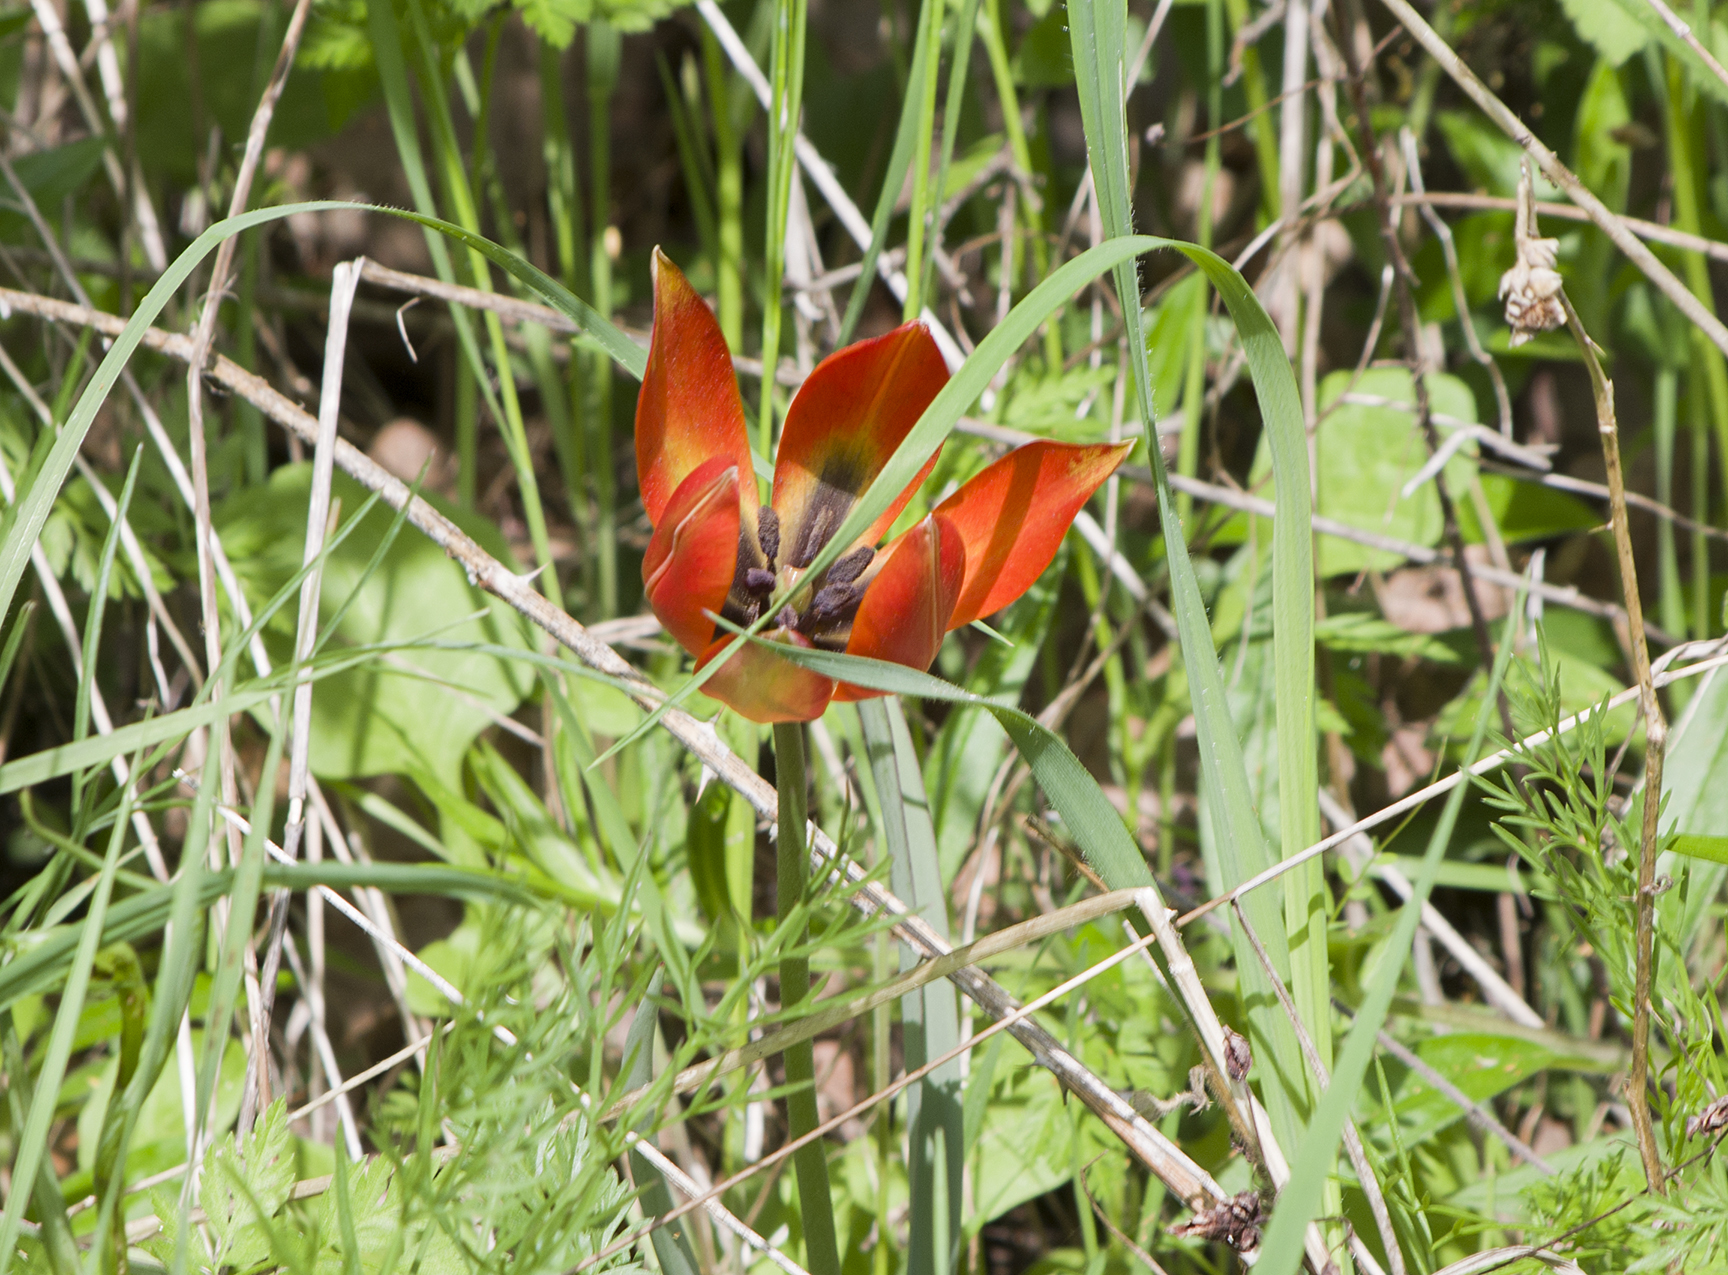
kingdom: Plantae
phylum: Tracheophyta
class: Liliopsida
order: Liliales
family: Liliaceae
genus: Tulipa
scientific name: Tulipa orphanidea
